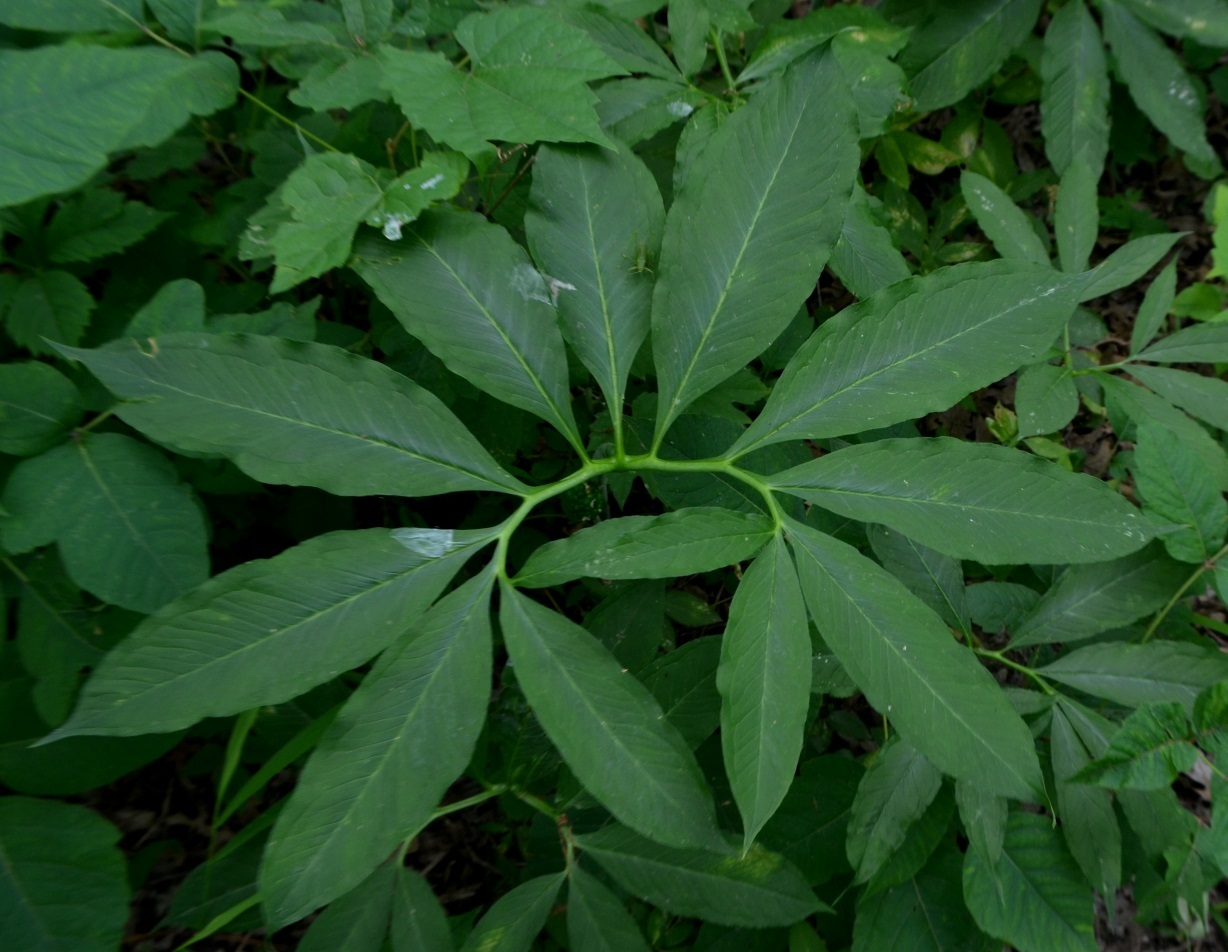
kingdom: Plantae
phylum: Tracheophyta
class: Liliopsida
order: Alismatales
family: Araceae
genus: Arisaema
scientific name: Arisaema dracontium
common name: Dragon-arum
